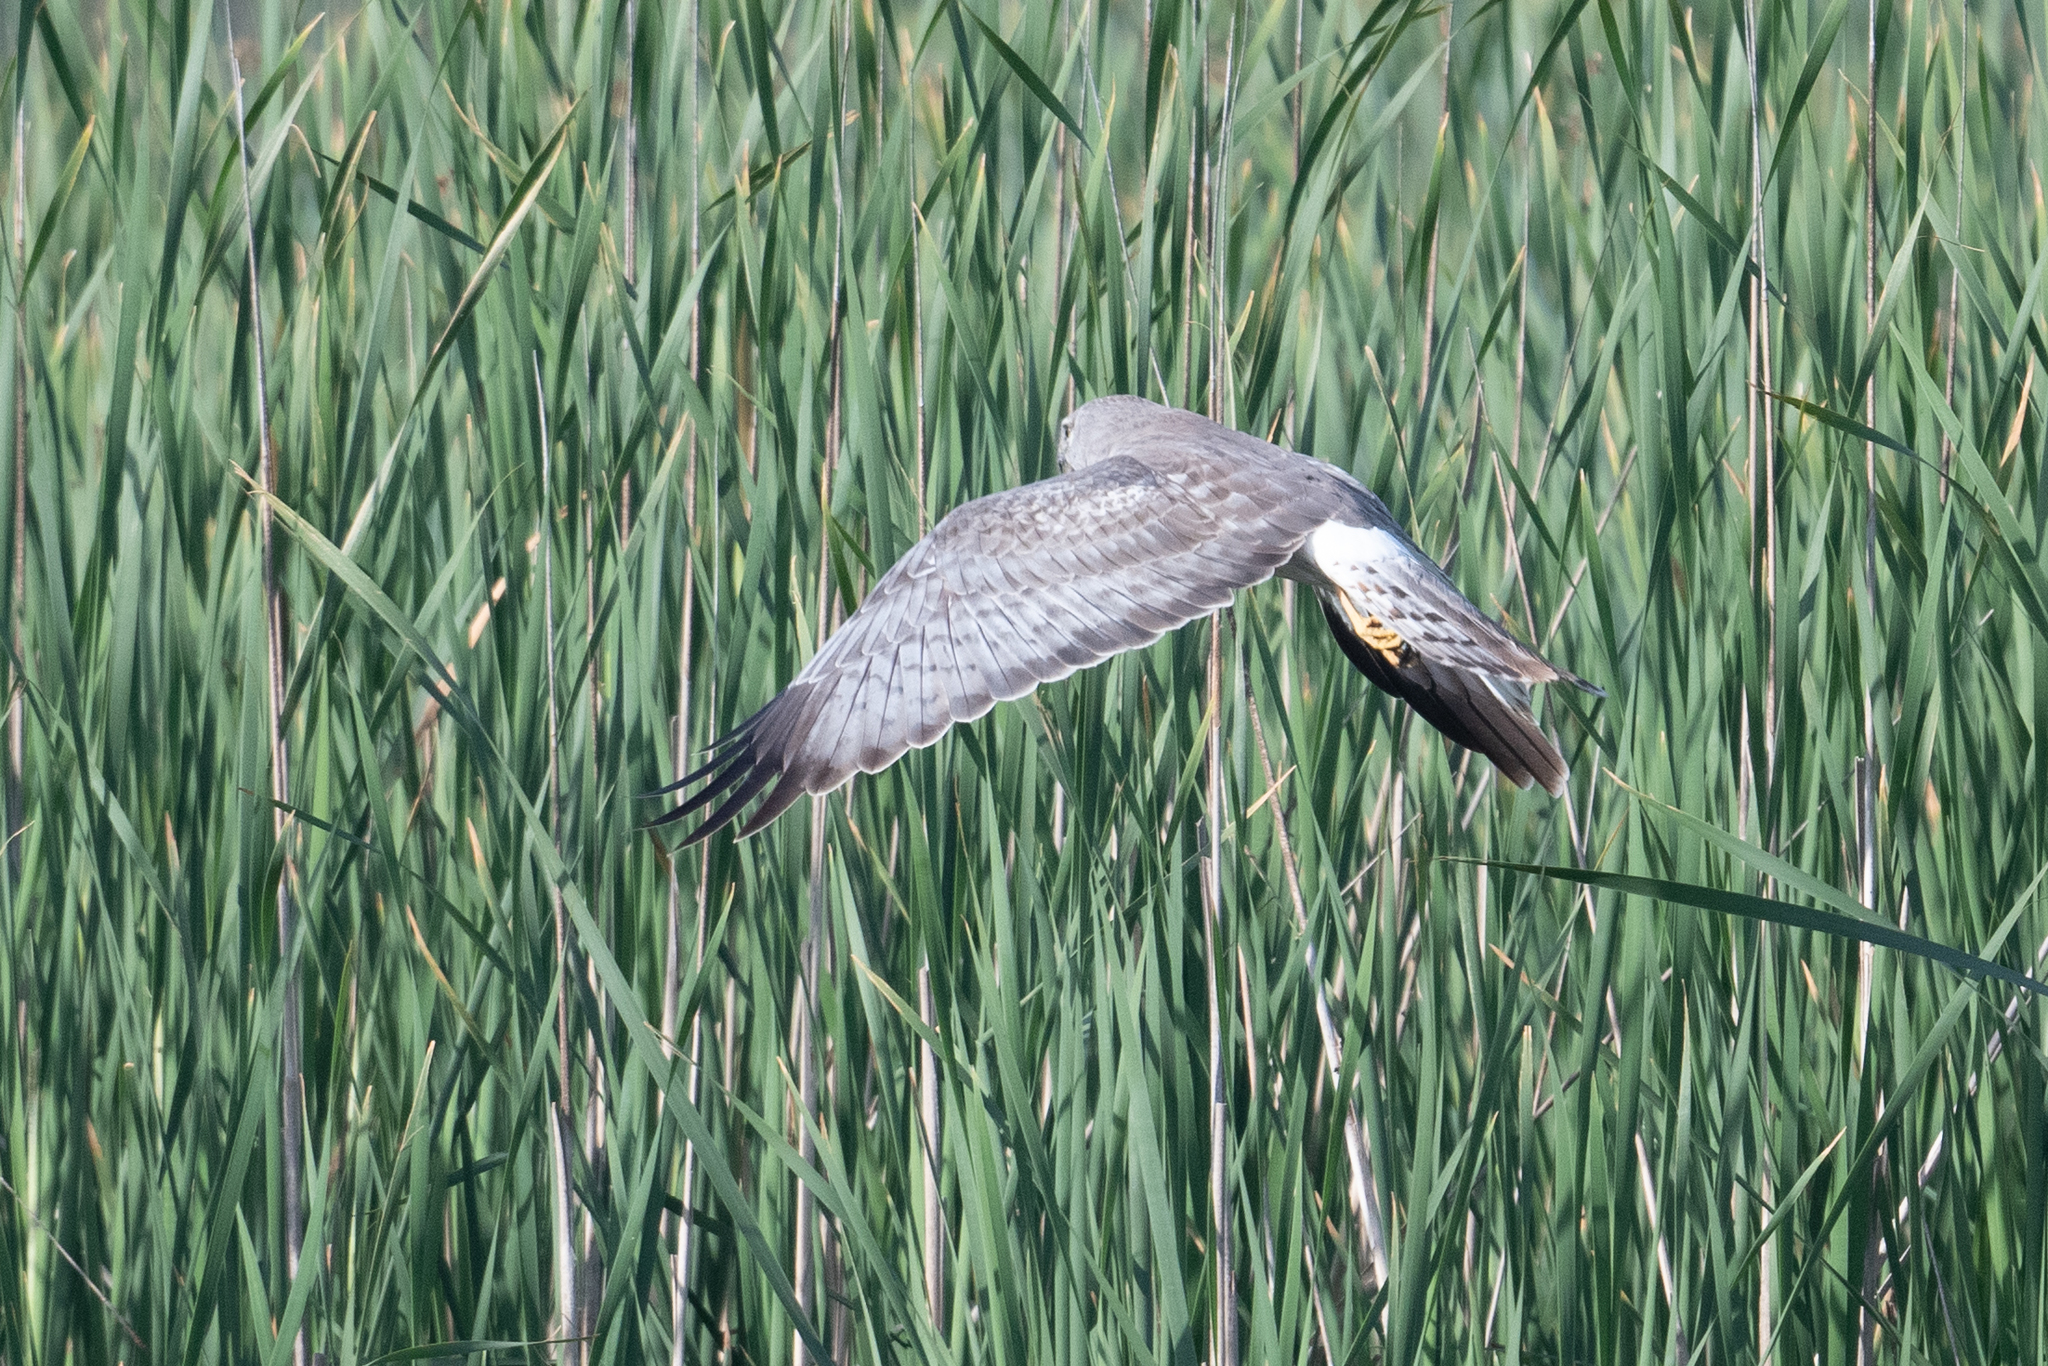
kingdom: Animalia
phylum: Chordata
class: Aves
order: Accipitriformes
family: Accipitridae
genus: Circus
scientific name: Circus cyaneus
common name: Hen harrier
